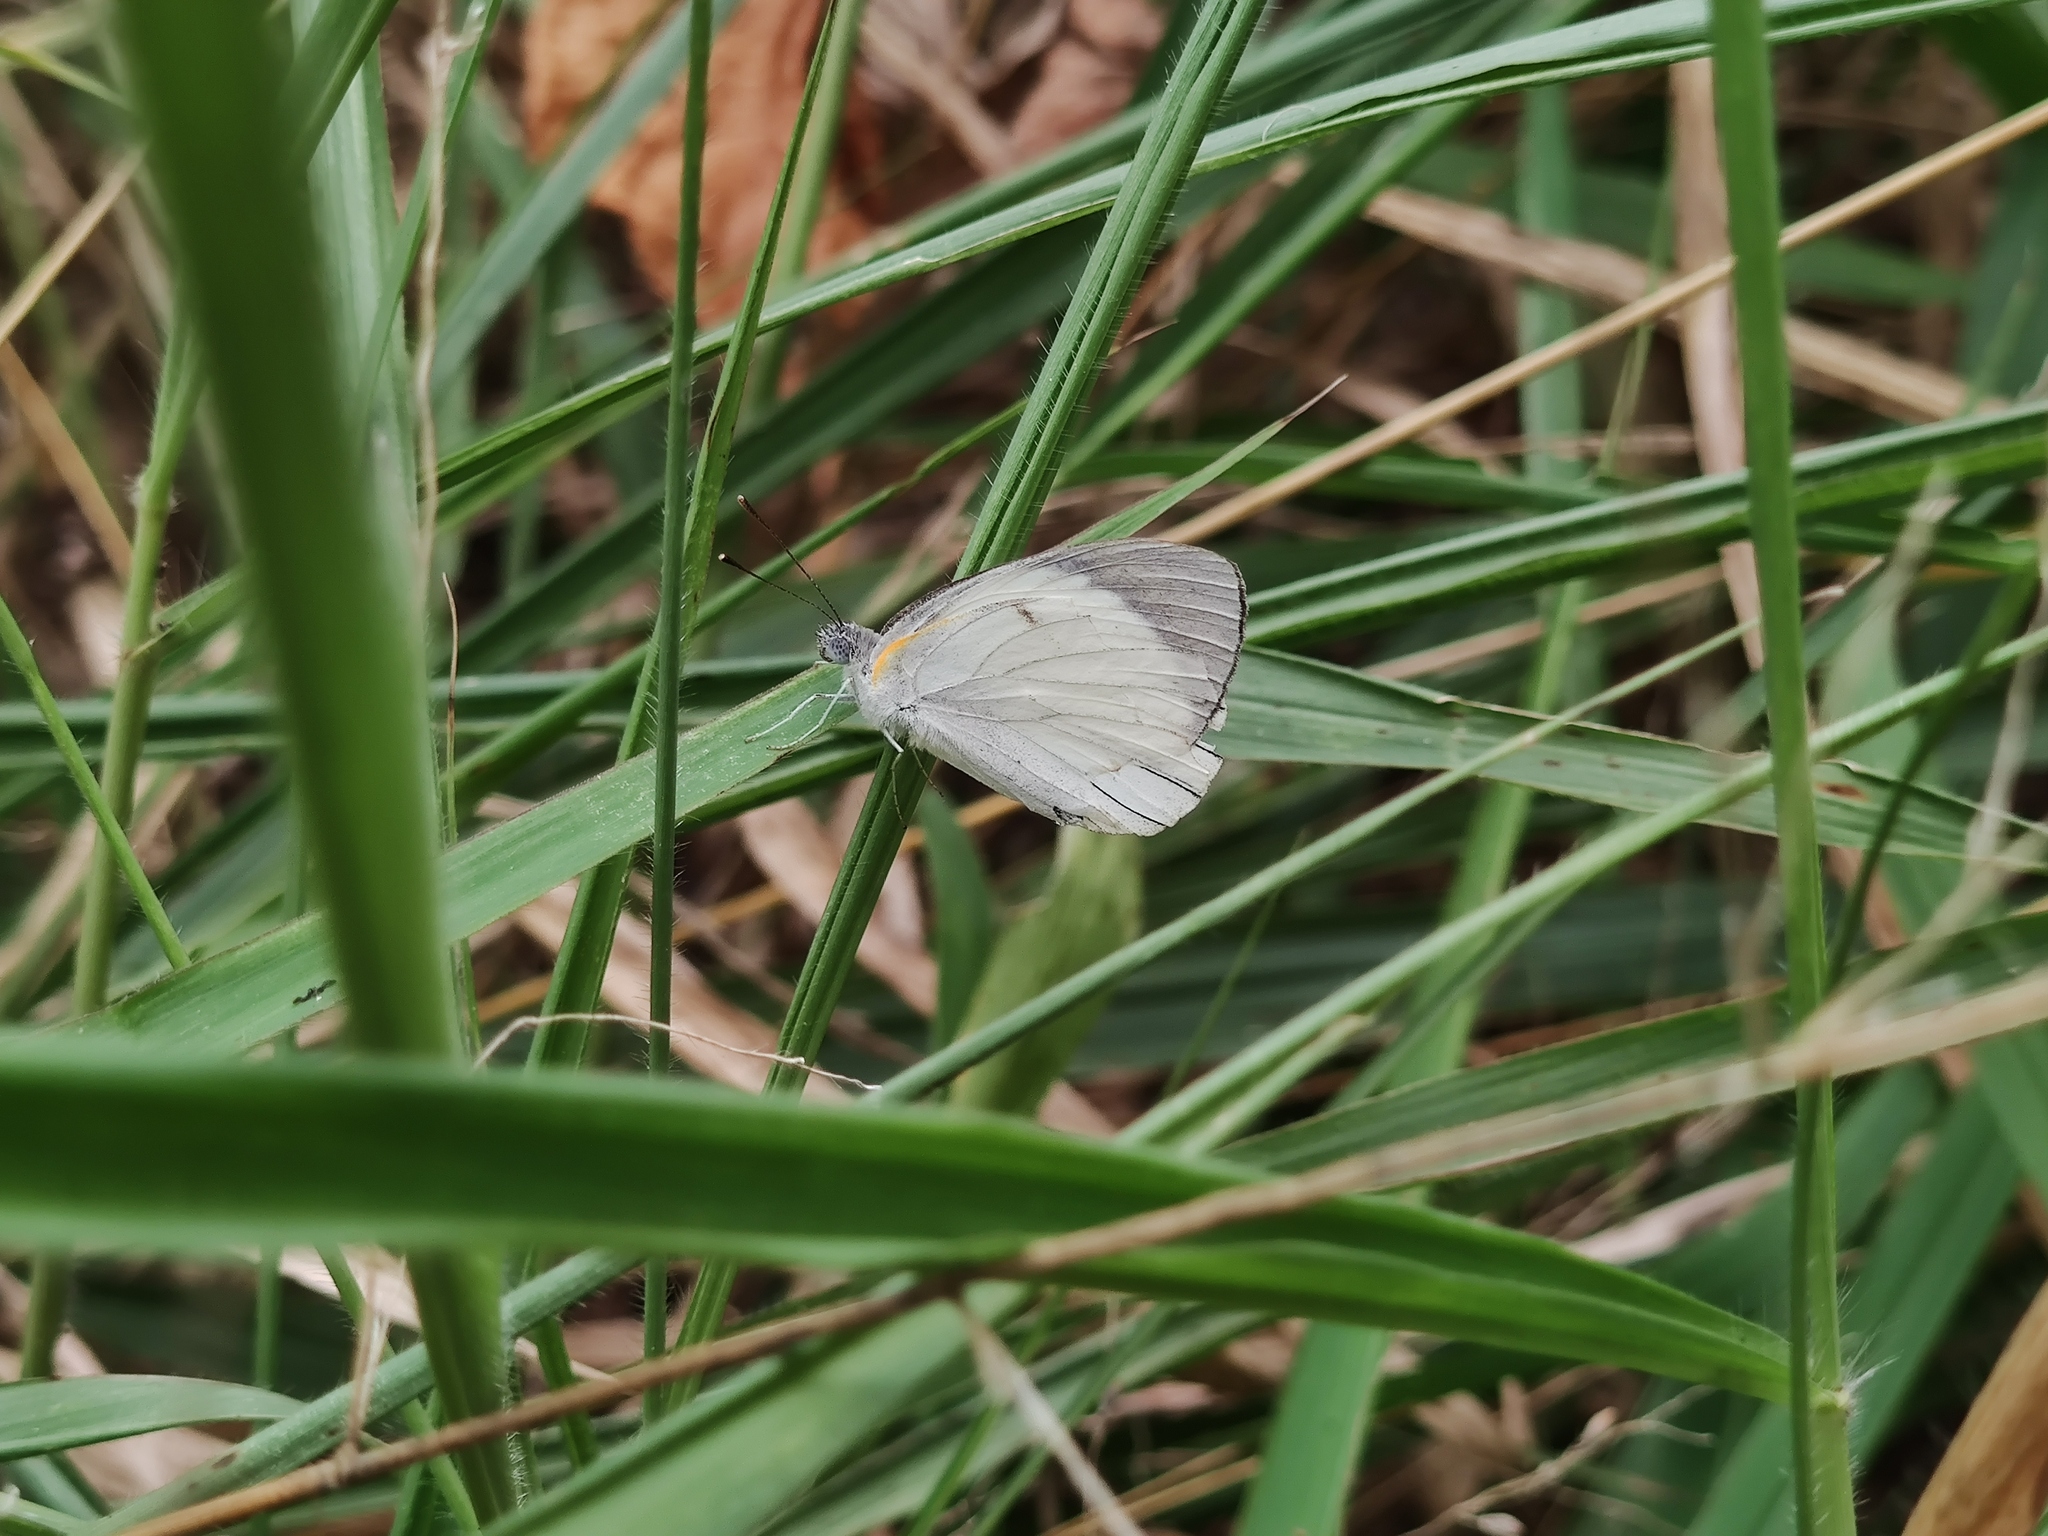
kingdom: Animalia
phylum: Arthropoda
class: Insecta
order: Lepidoptera
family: Pieridae
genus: Colotis
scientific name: Colotis ione
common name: Bushveld purple tip
